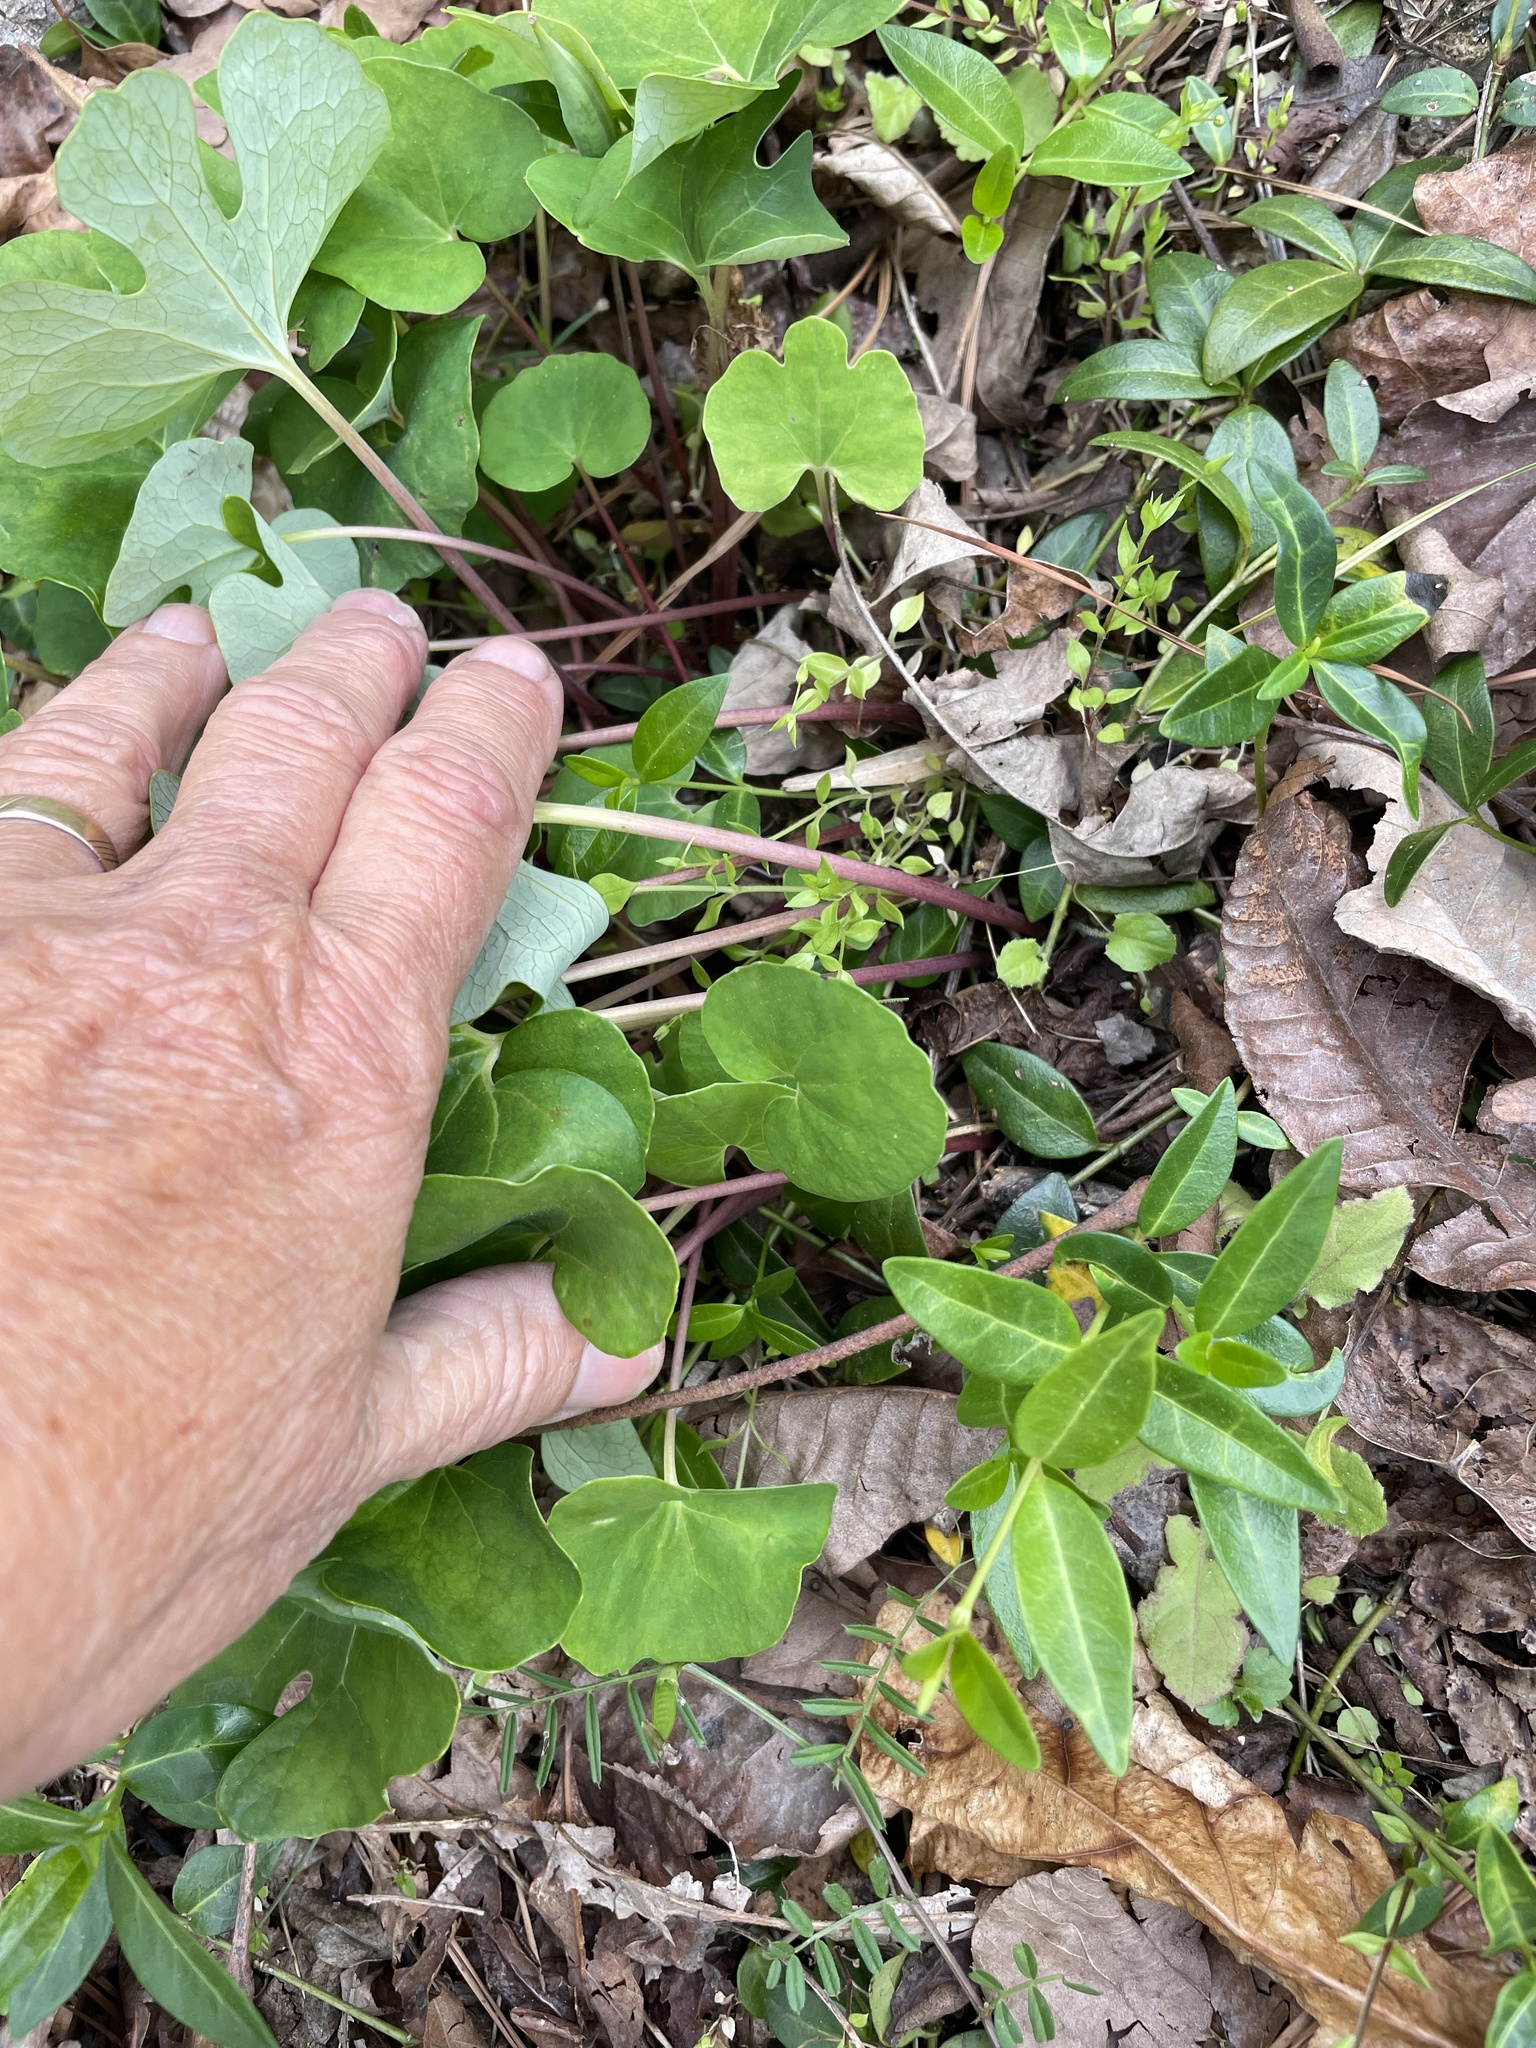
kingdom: Plantae
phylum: Tracheophyta
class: Magnoliopsida
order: Ranunculales
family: Papaveraceae
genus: Sanguinaria
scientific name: Sanguinaria canadensis
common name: Bloodroot
